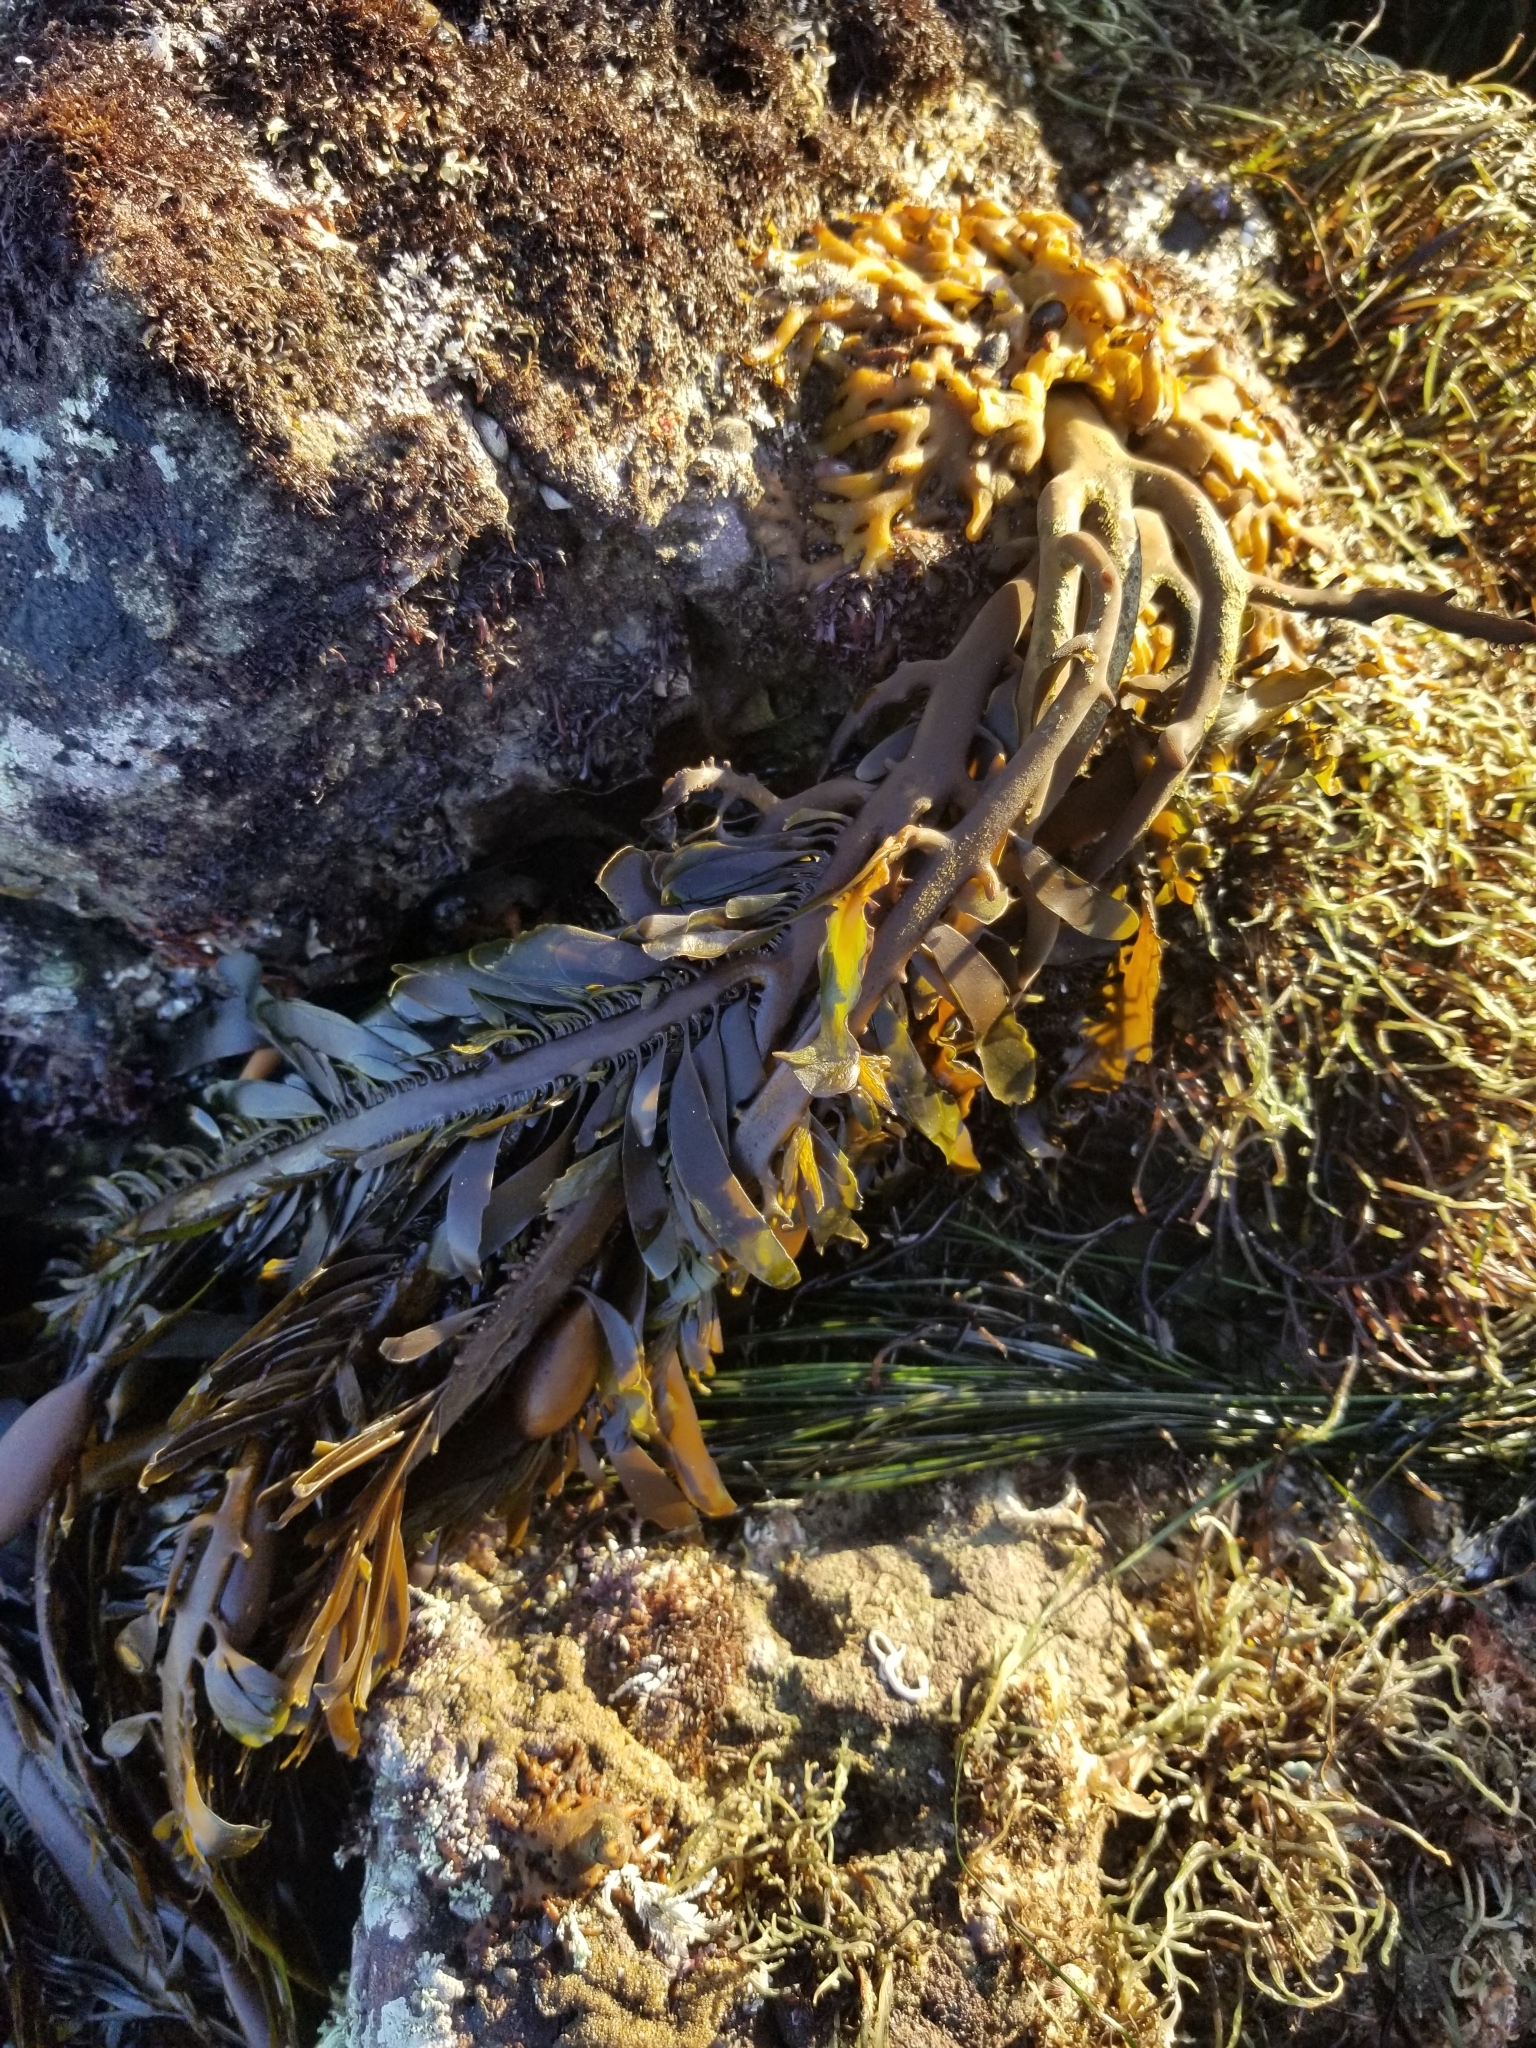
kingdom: Chromista
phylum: Ochrophyta
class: Phaeophyceae
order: Laminariales
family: Lessoniaceae
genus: Egregia
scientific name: Egregia menziesii
